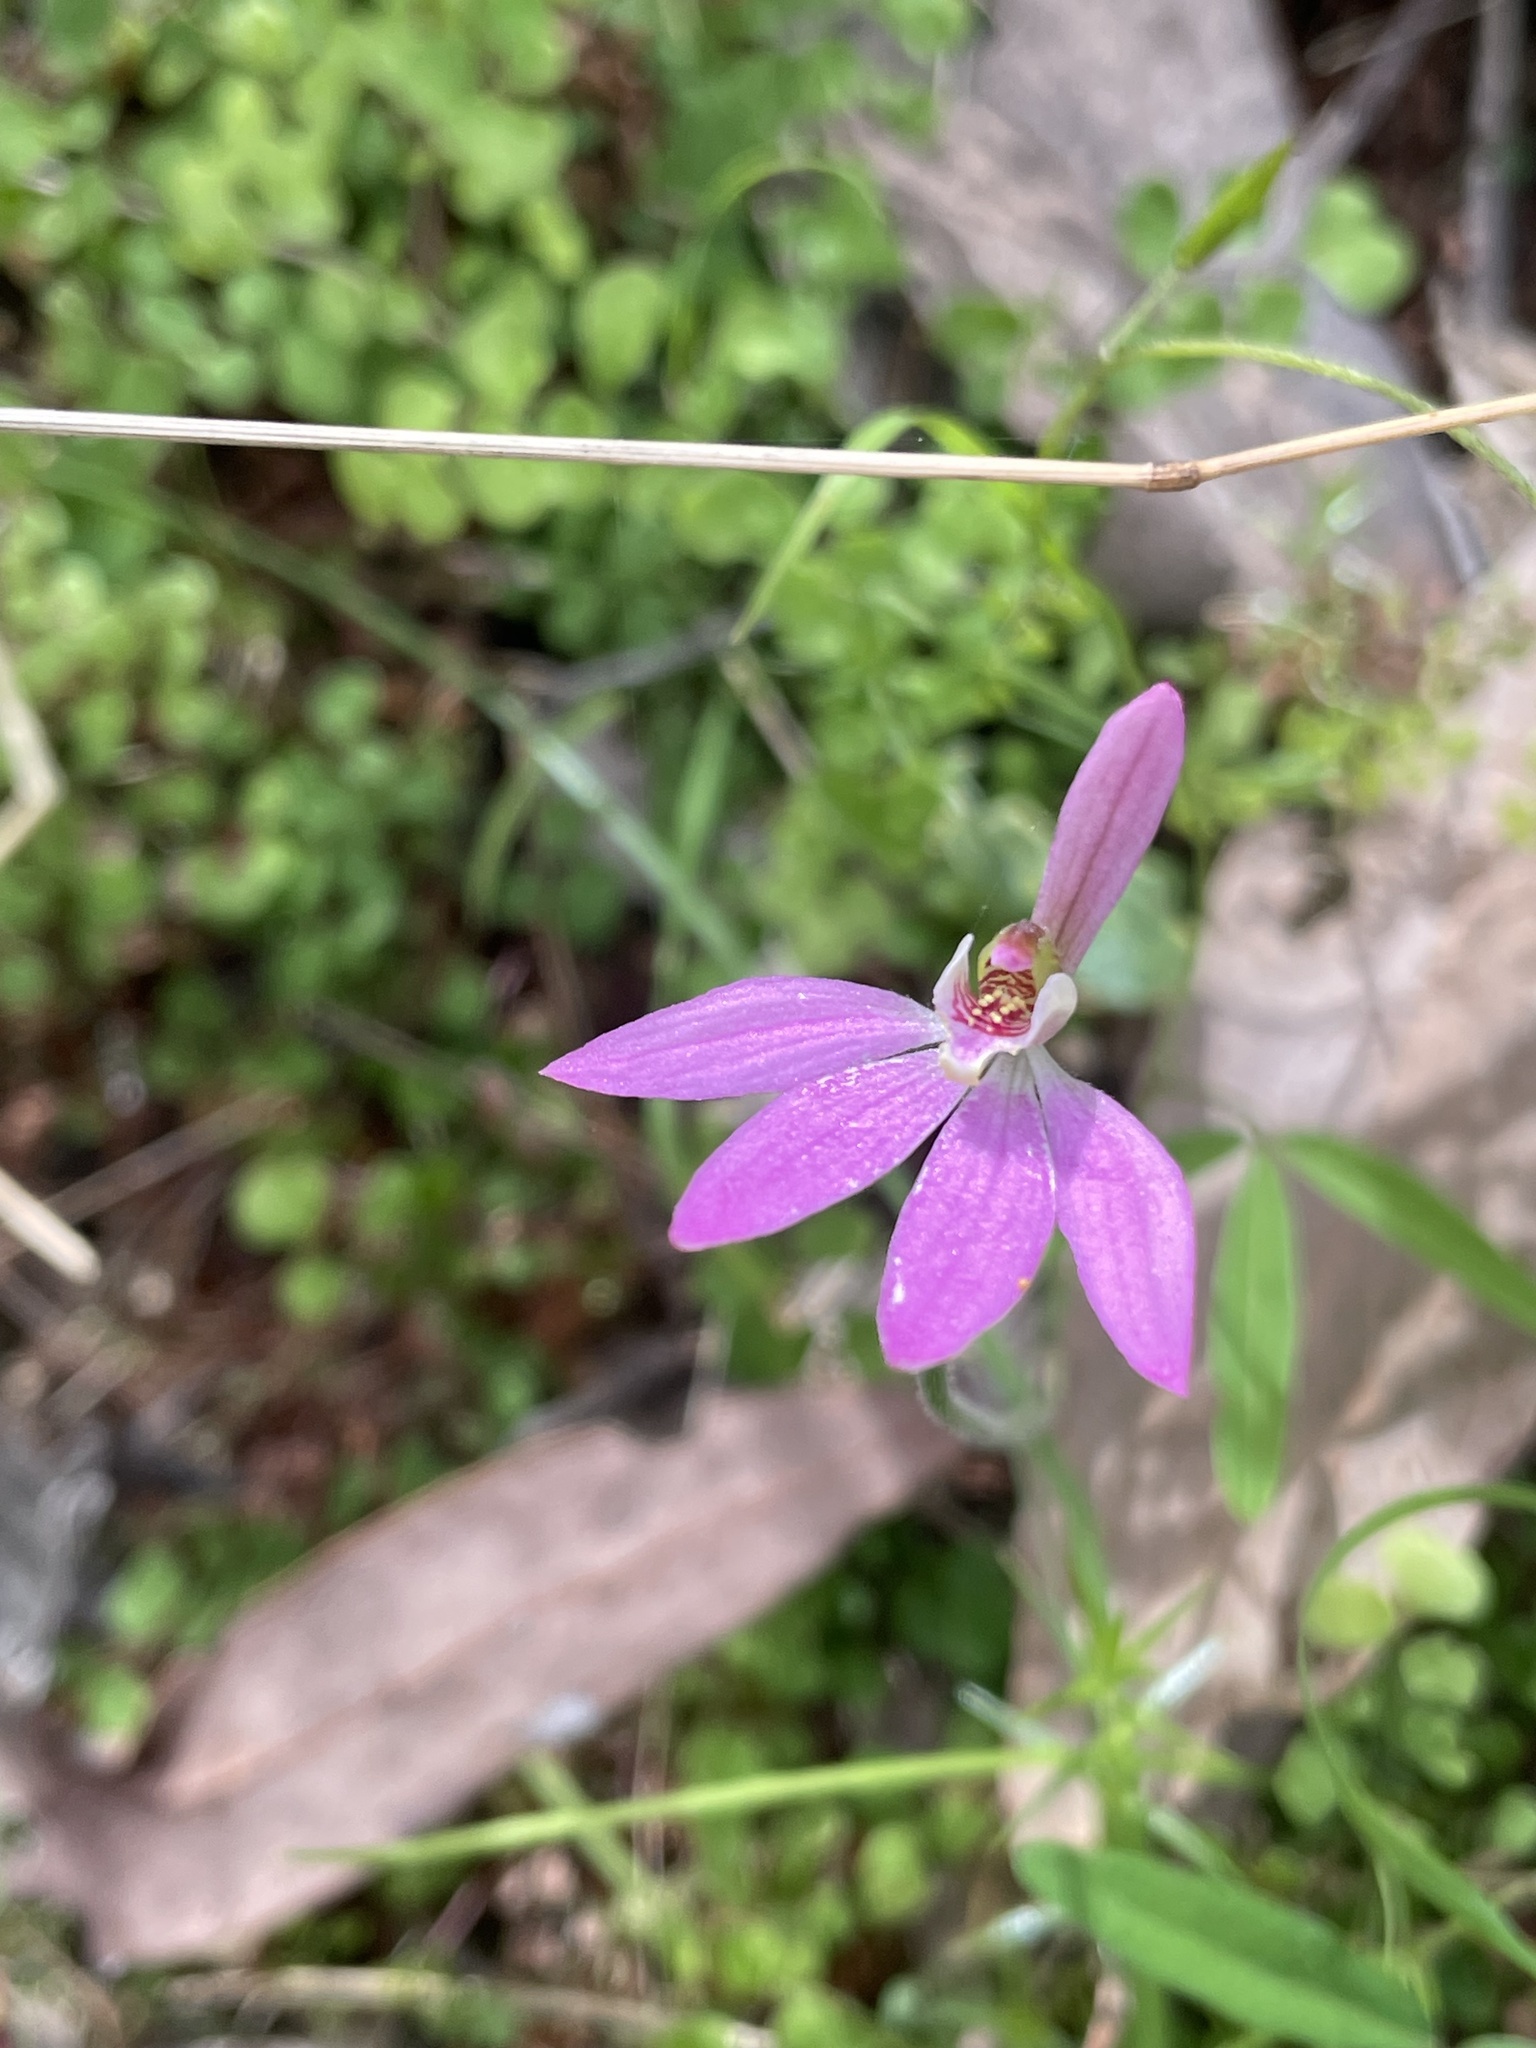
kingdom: Plantae
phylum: Tracheophyta
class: Liliopsida
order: Asparagales
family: Orchidaceae
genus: Caladenia
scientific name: Caladenia carnea
